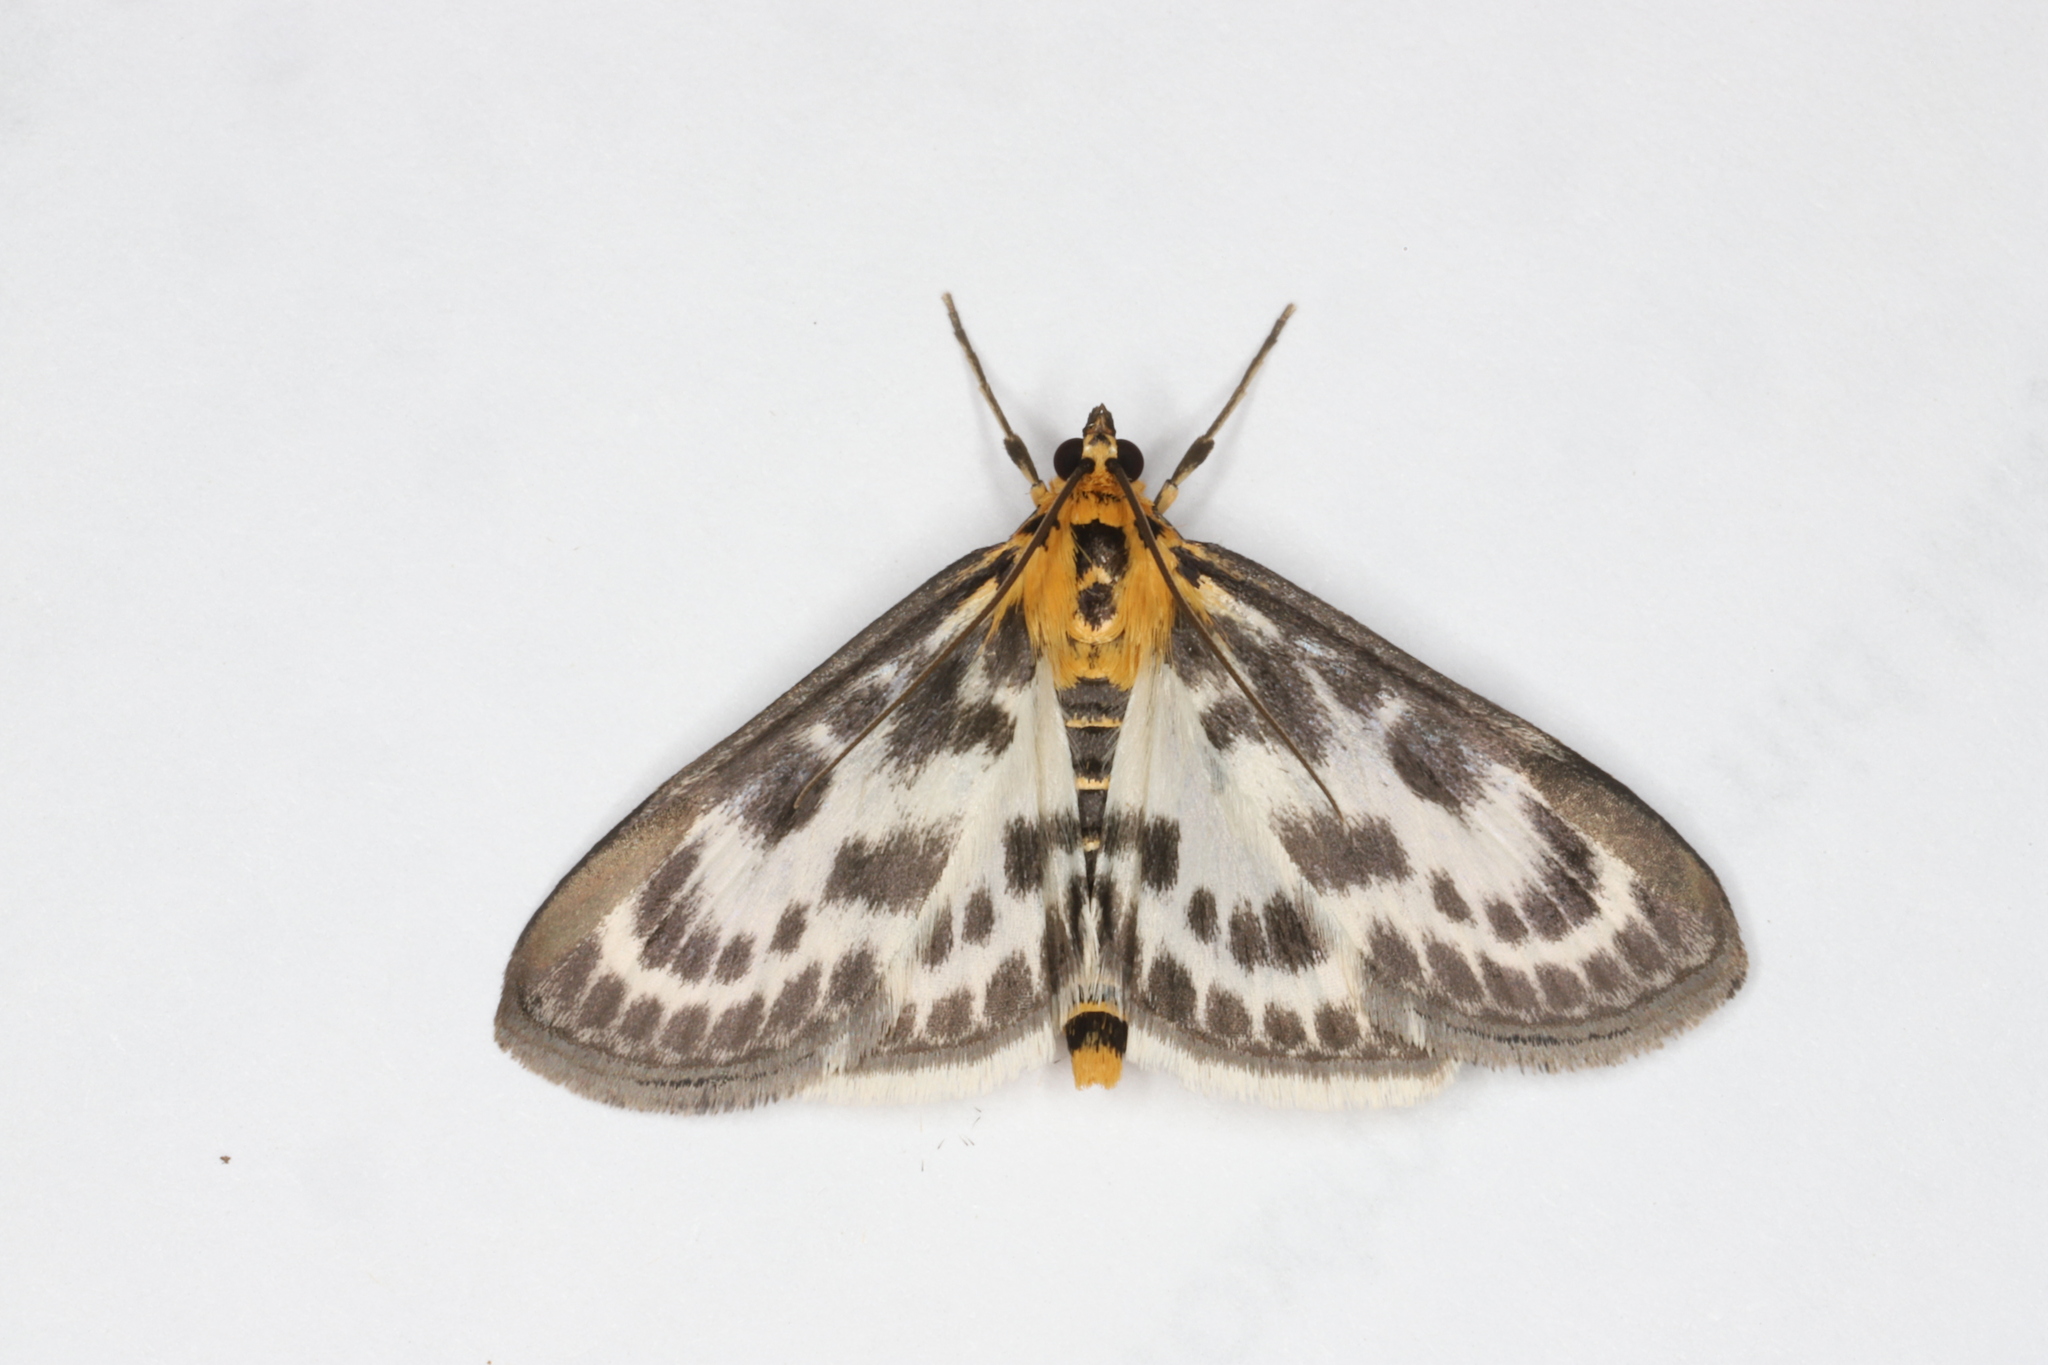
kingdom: Animalia
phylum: Arthropoda
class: Insecta
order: Lepidoptera
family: Crambidae
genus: Anania
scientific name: Anania hortulata
